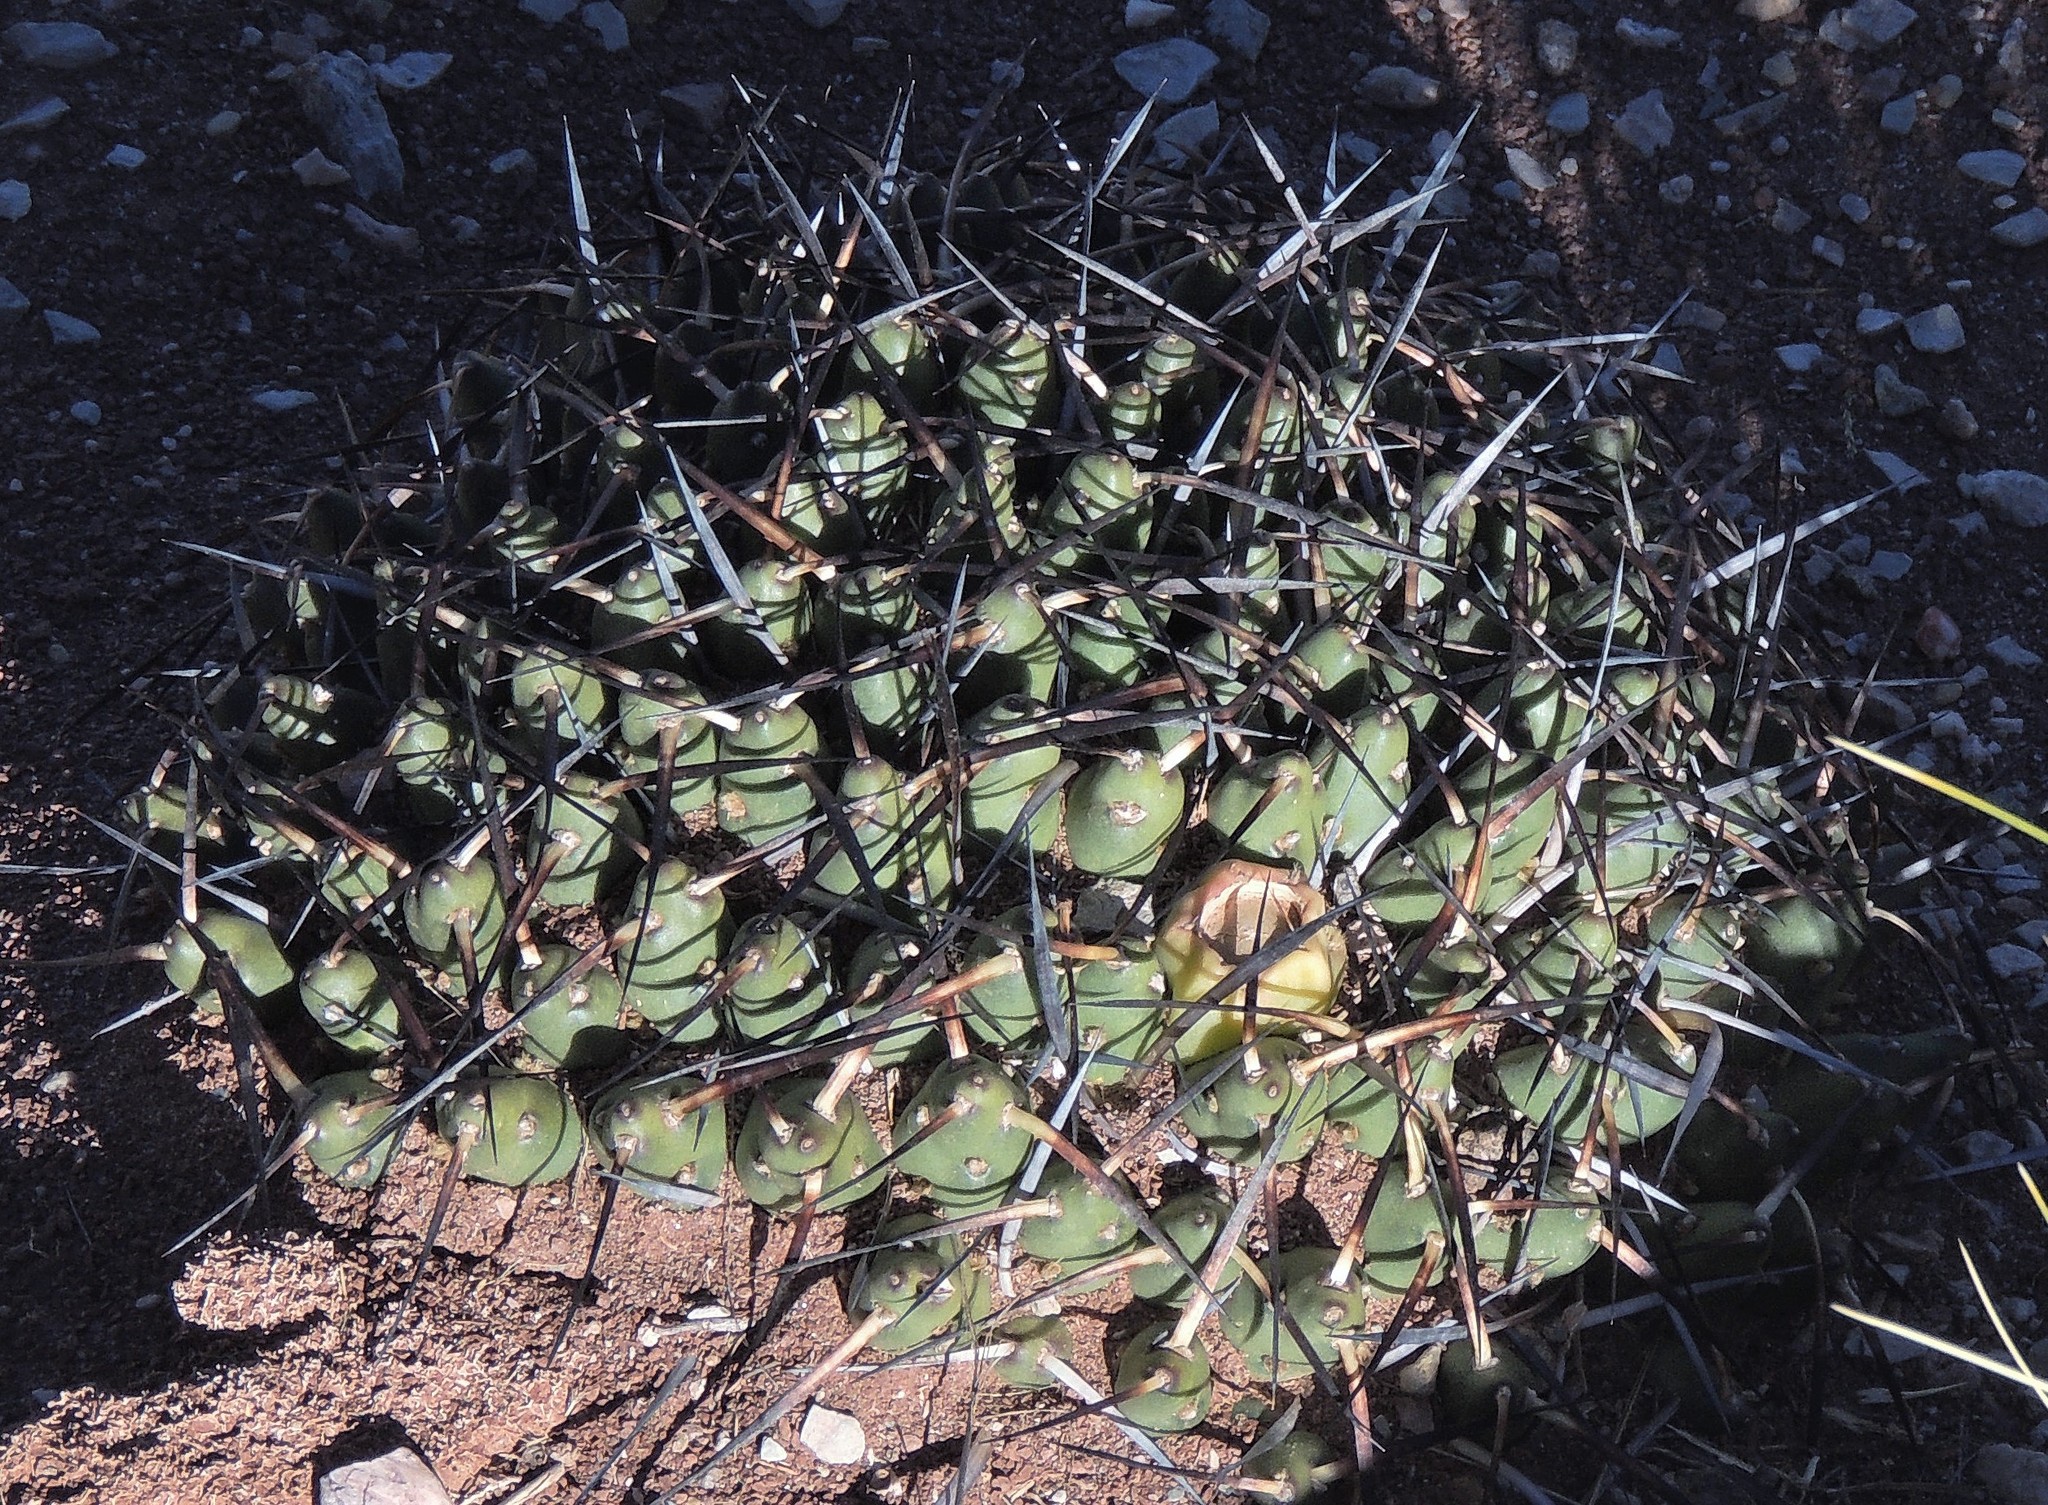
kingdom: Plantae
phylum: Tracheophyta
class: Magnoliopsida
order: Caryophyllales
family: Cactaceae
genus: Maihueniopsis
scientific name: Maihueniopsis glomerata
